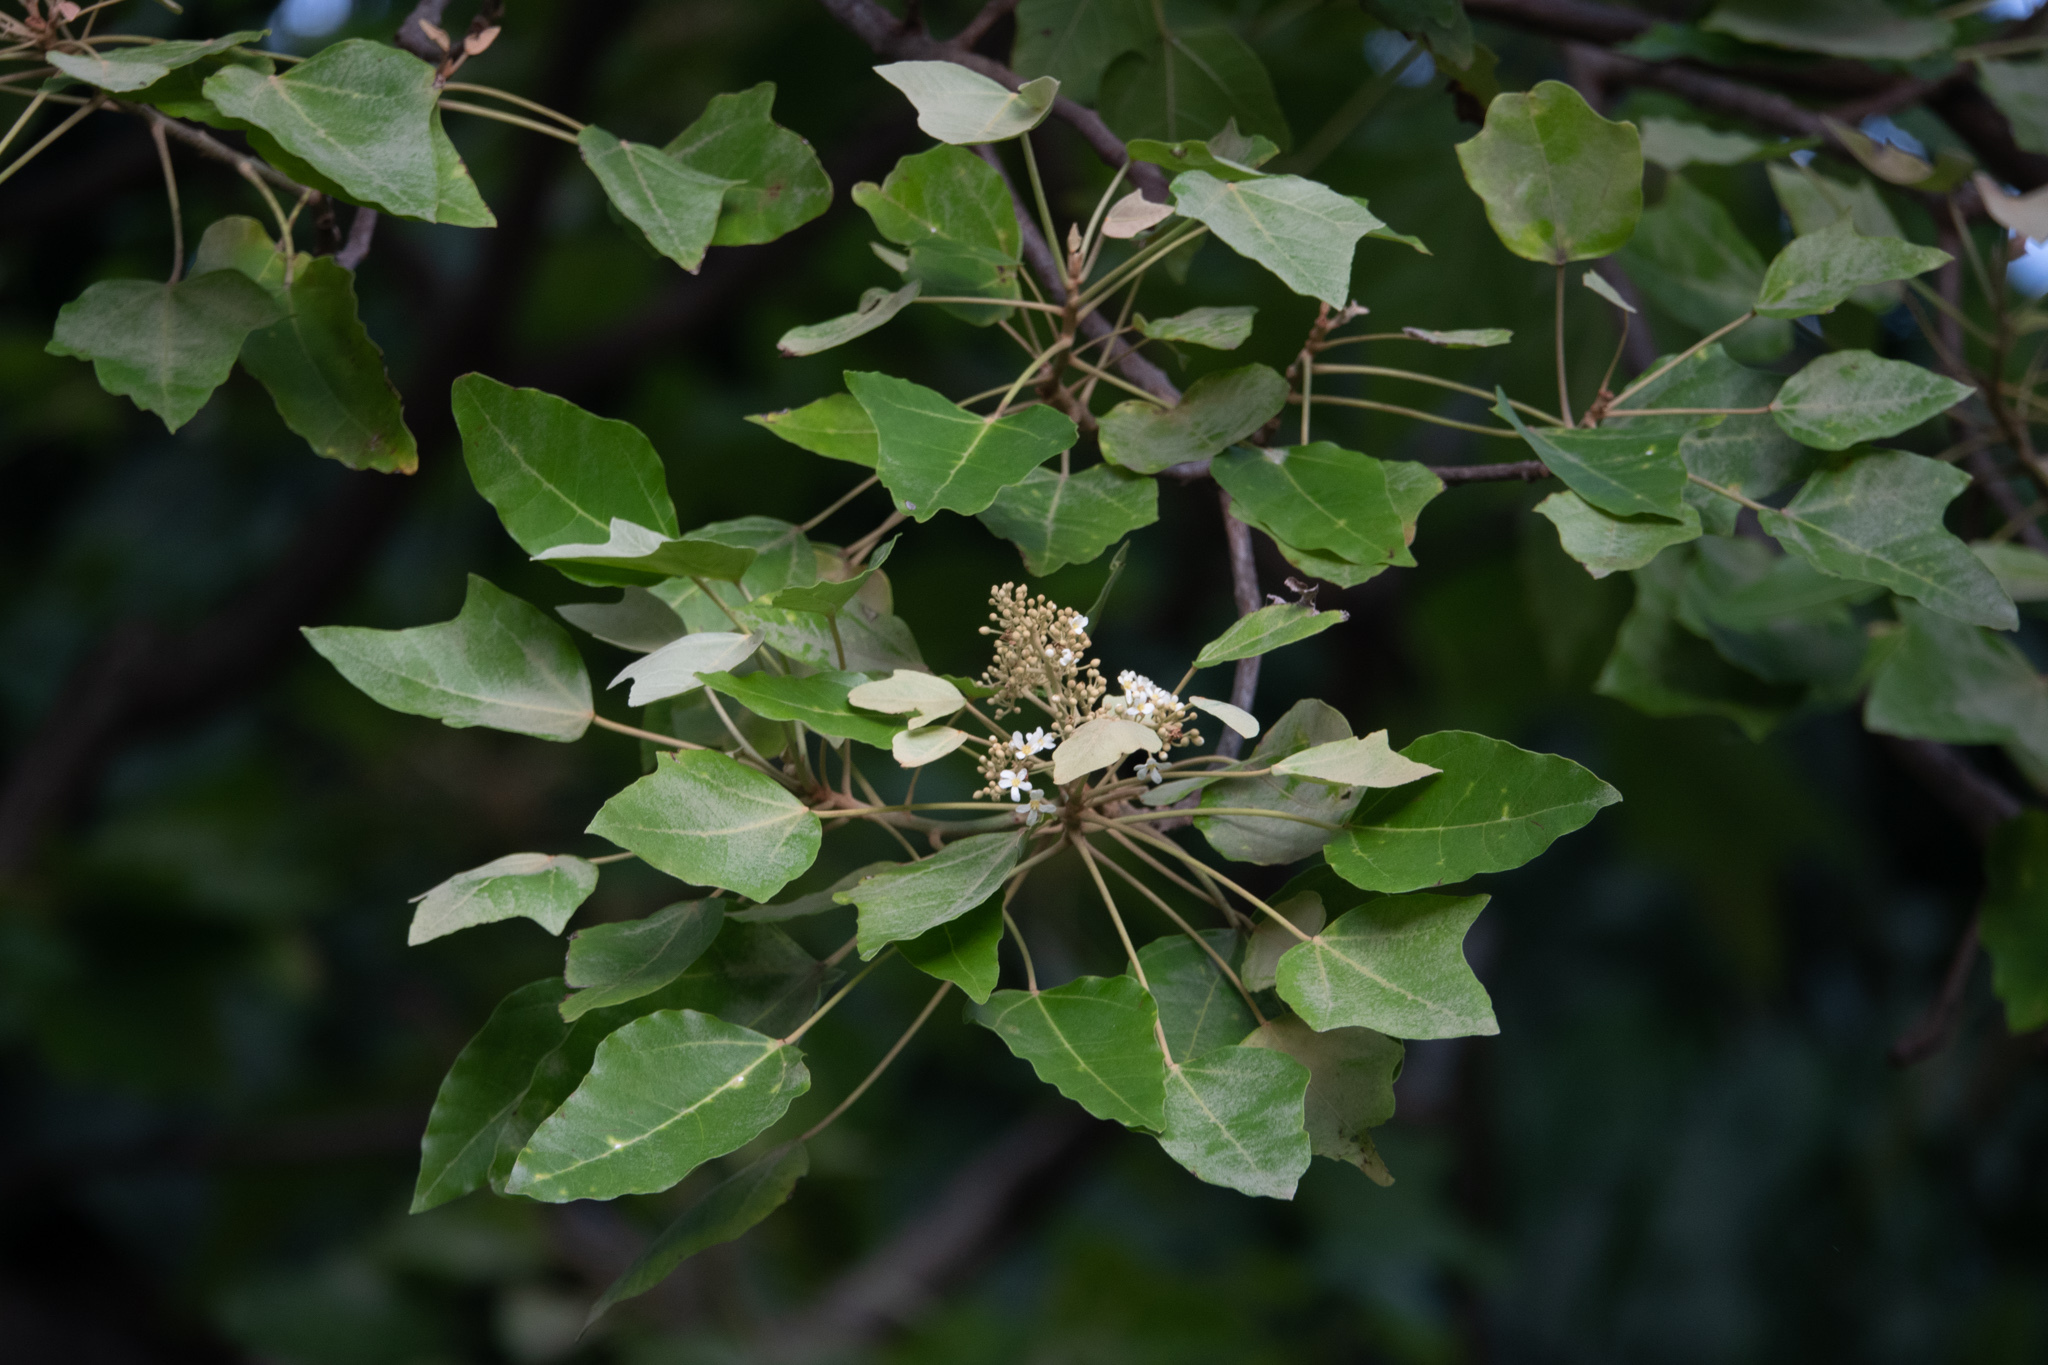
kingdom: Plantae
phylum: Tracheophyta
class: Magnoliopsida
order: Malpighiales
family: Euphorbiaceae
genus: Aleurites
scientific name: Aleurites moluccanus
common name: Candlenut tree
